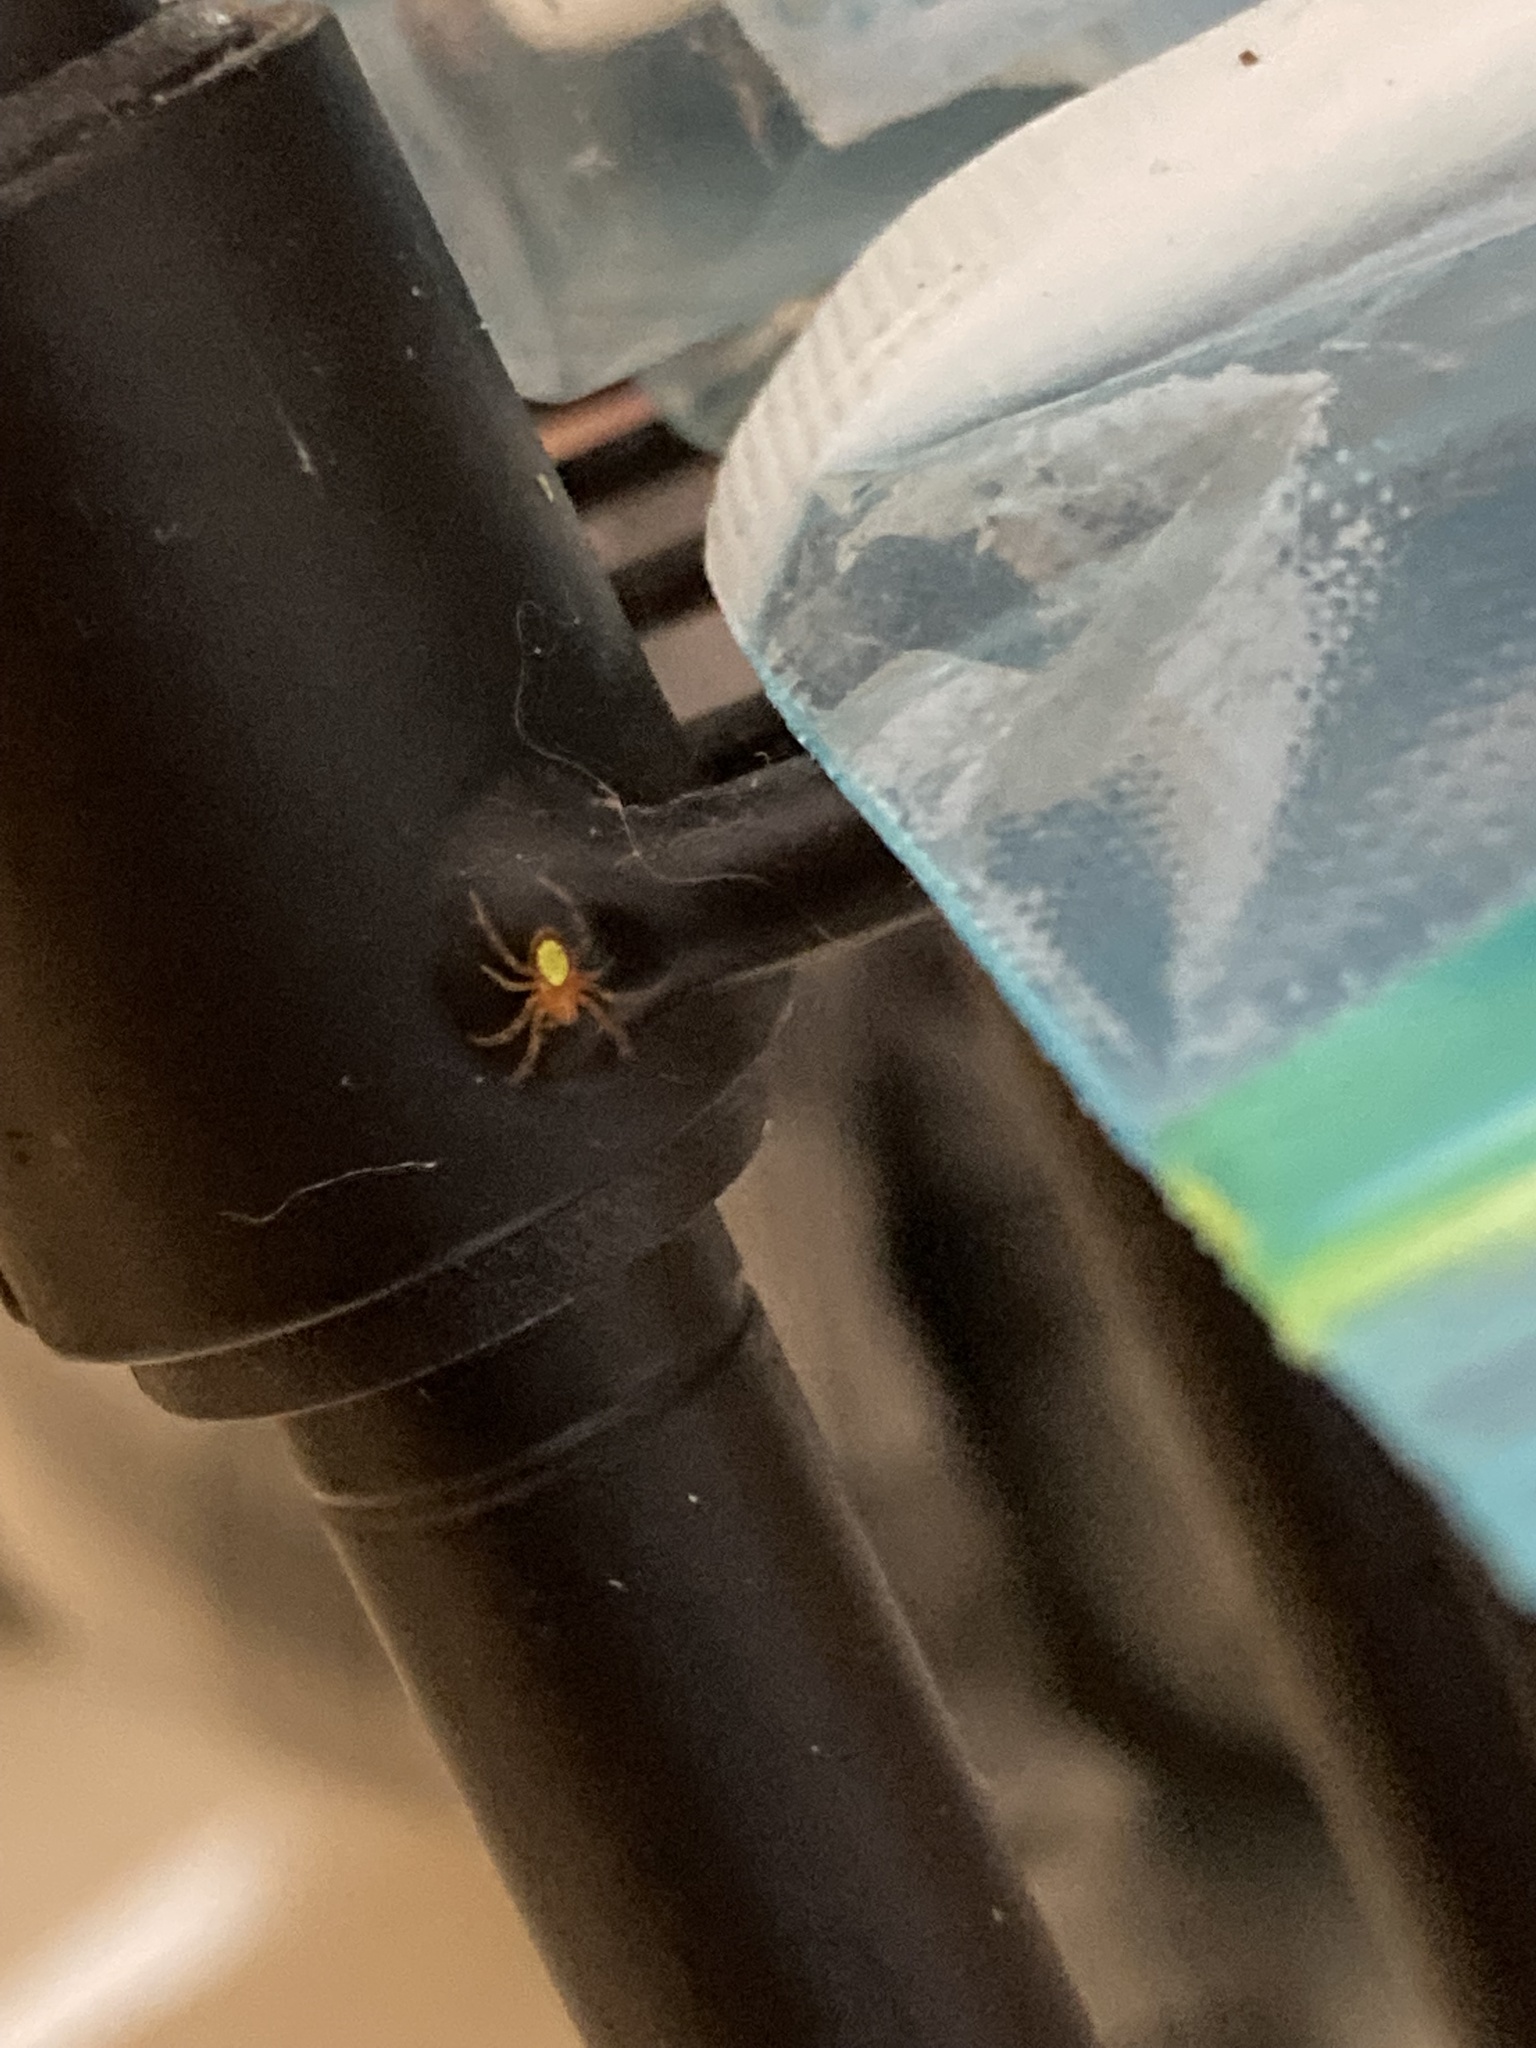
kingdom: Animalia
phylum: Arthropoda
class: Arachnida
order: Araneae
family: Araneidae
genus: Eriophora
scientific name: Eriophora ravilla
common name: Orb weavers
